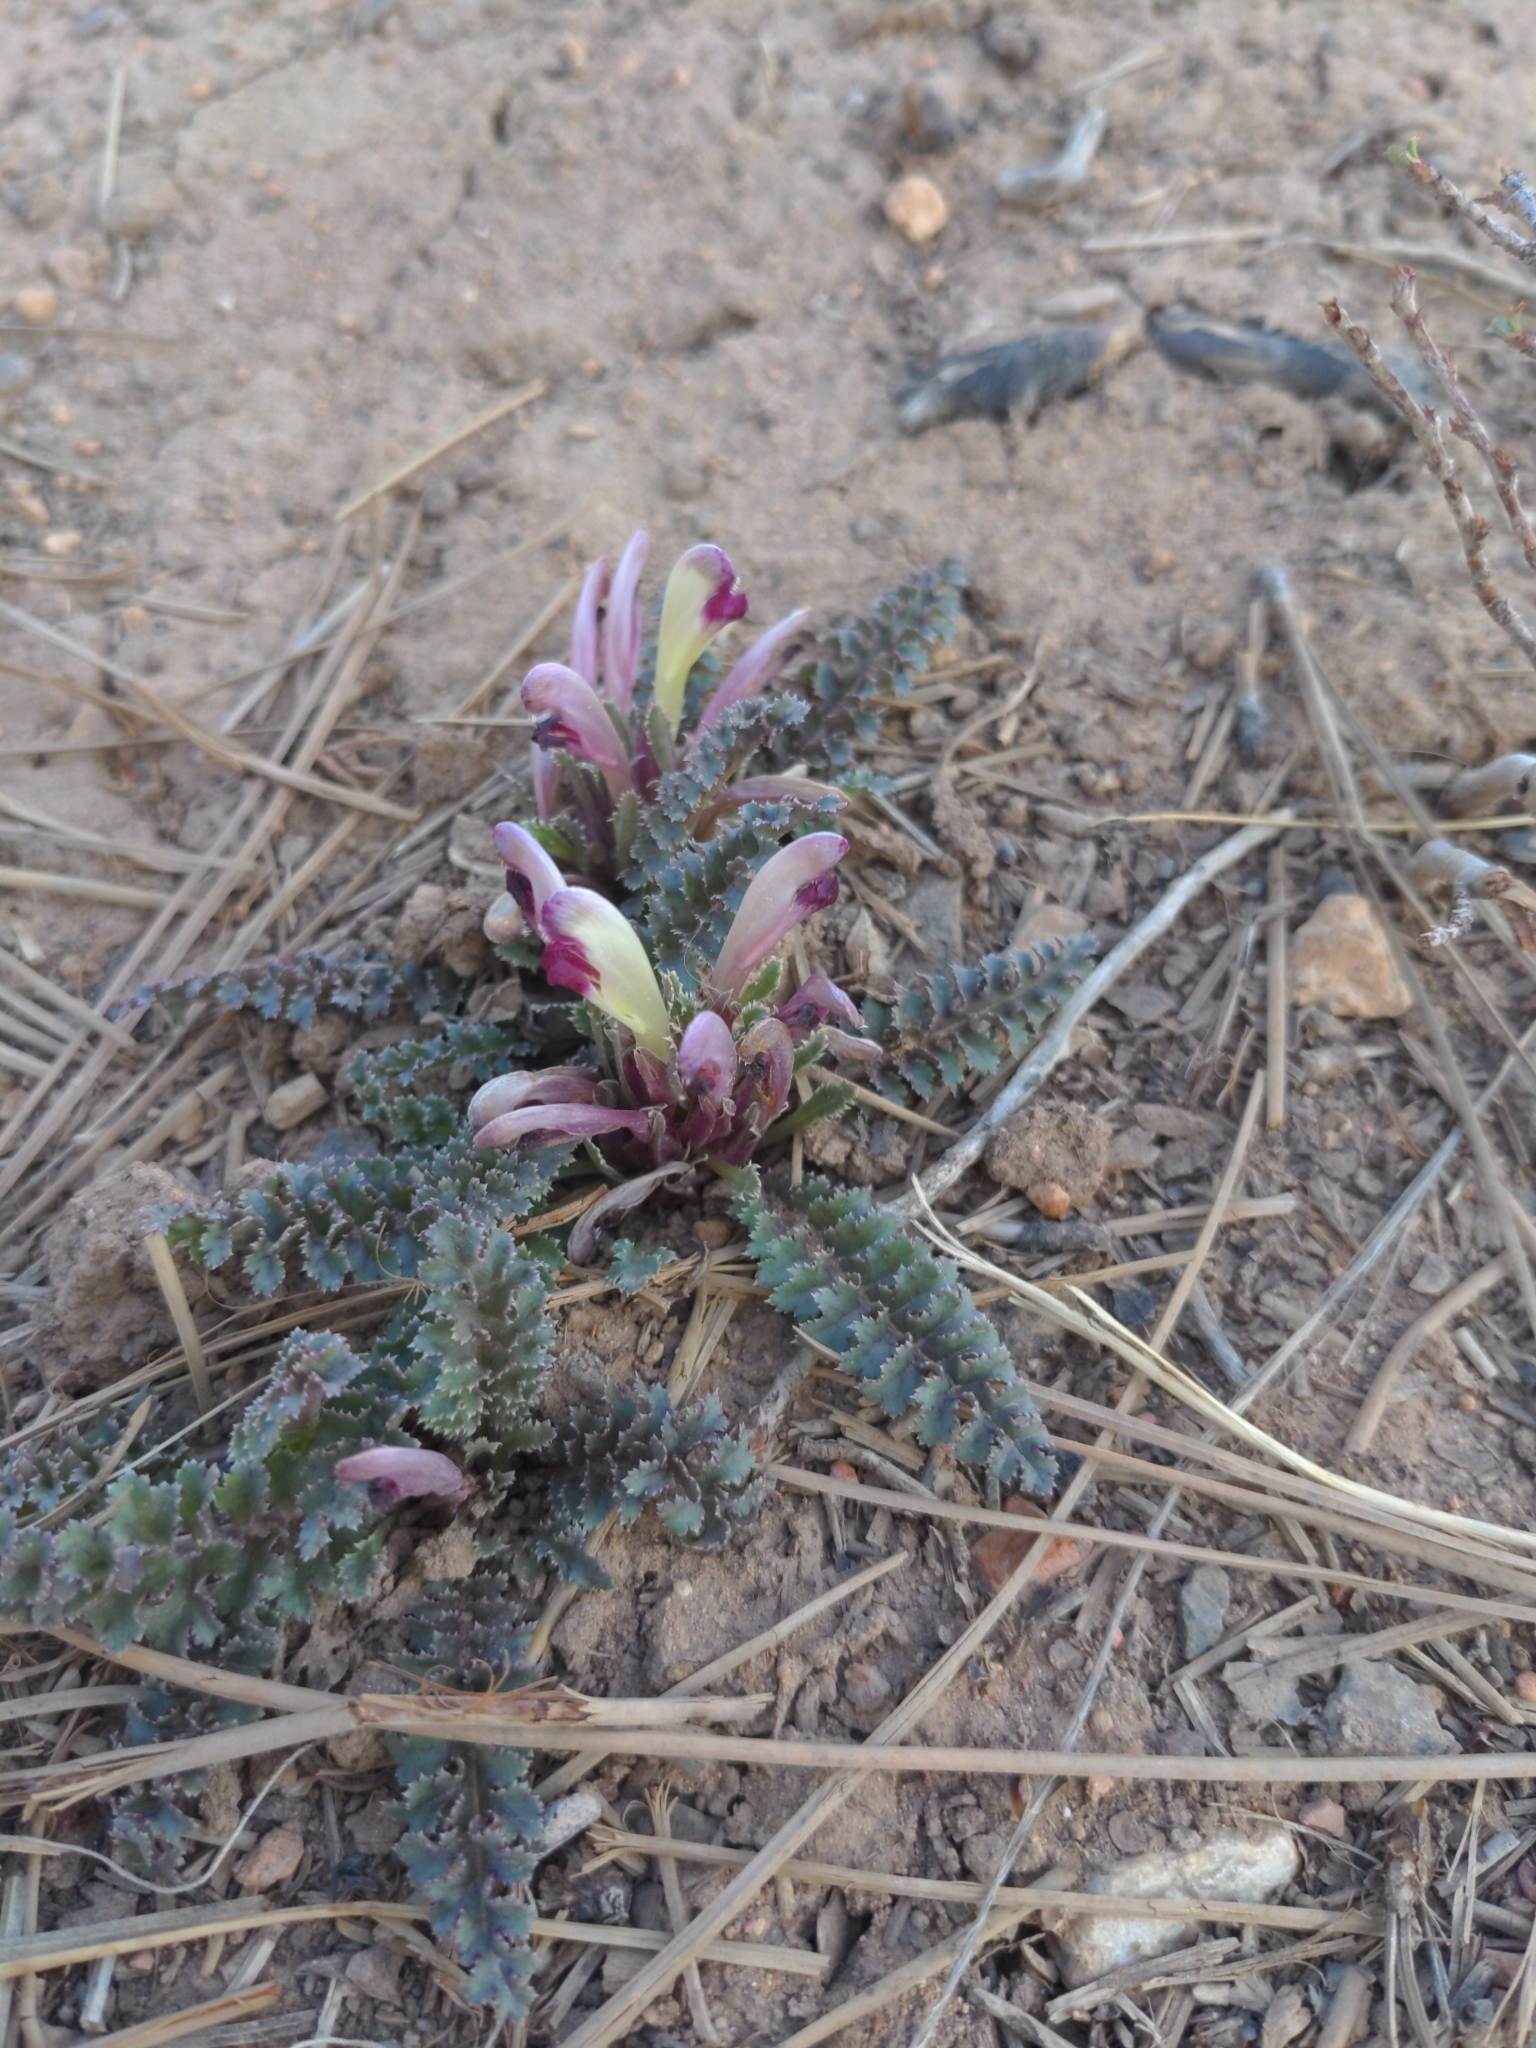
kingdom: Plantae
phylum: Tracheophyta
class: Magnoliopsida
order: Lamiales
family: Orobanchaceae
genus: Pedicularis
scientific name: Pedicularis centranthera
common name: Dwarf lousewort
